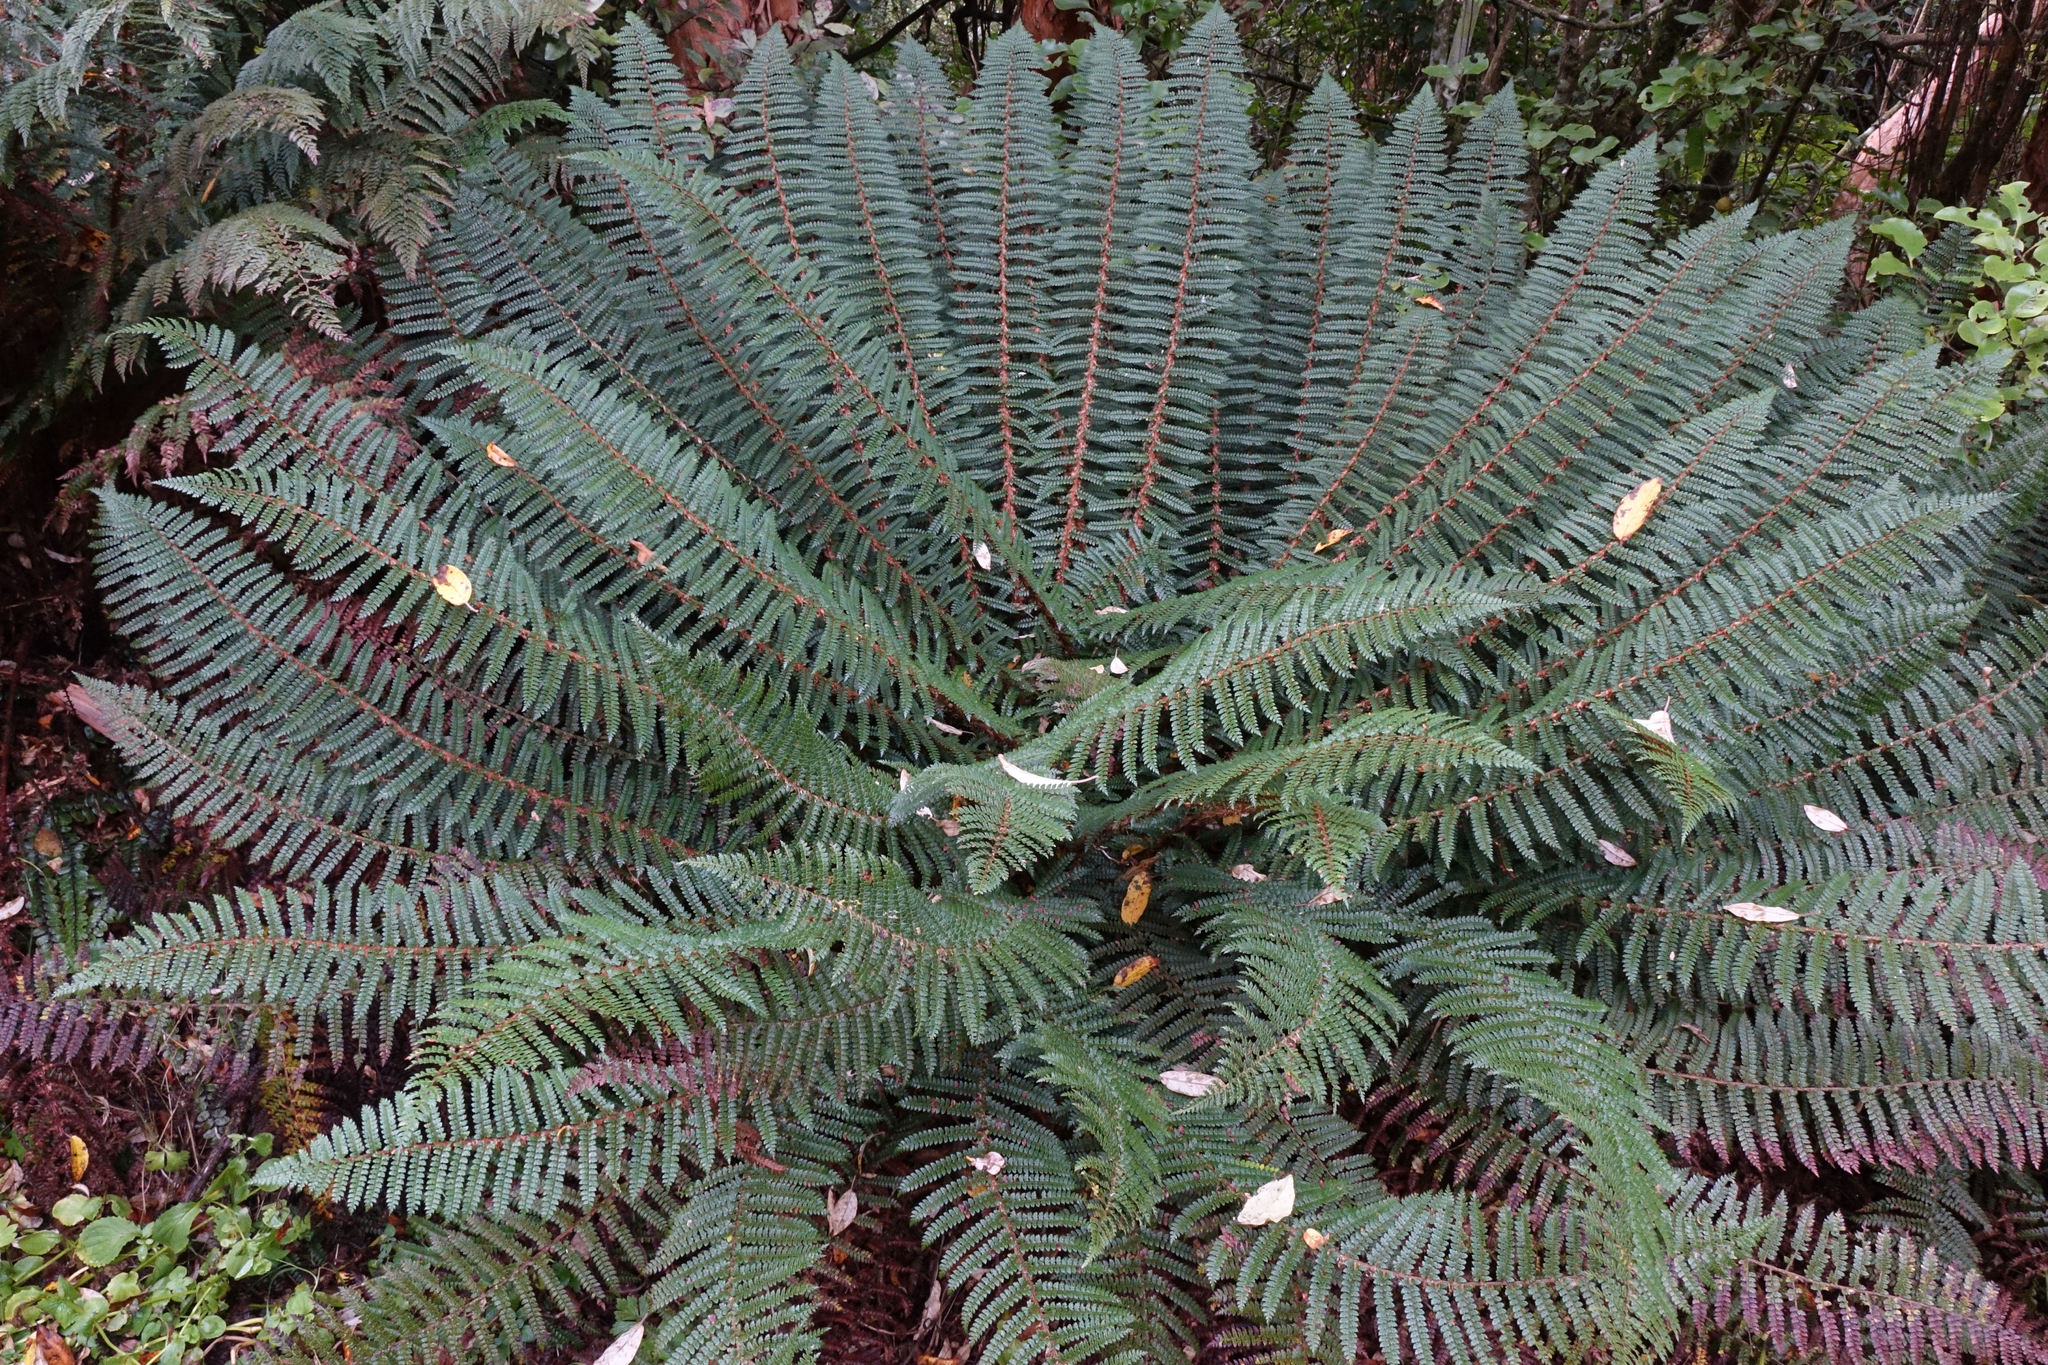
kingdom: Plantae
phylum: Tracheophyta
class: Polypodiopsida
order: Polypodiales
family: Dryopteridaceae
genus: Polystichum
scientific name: Polystichum vestitum
